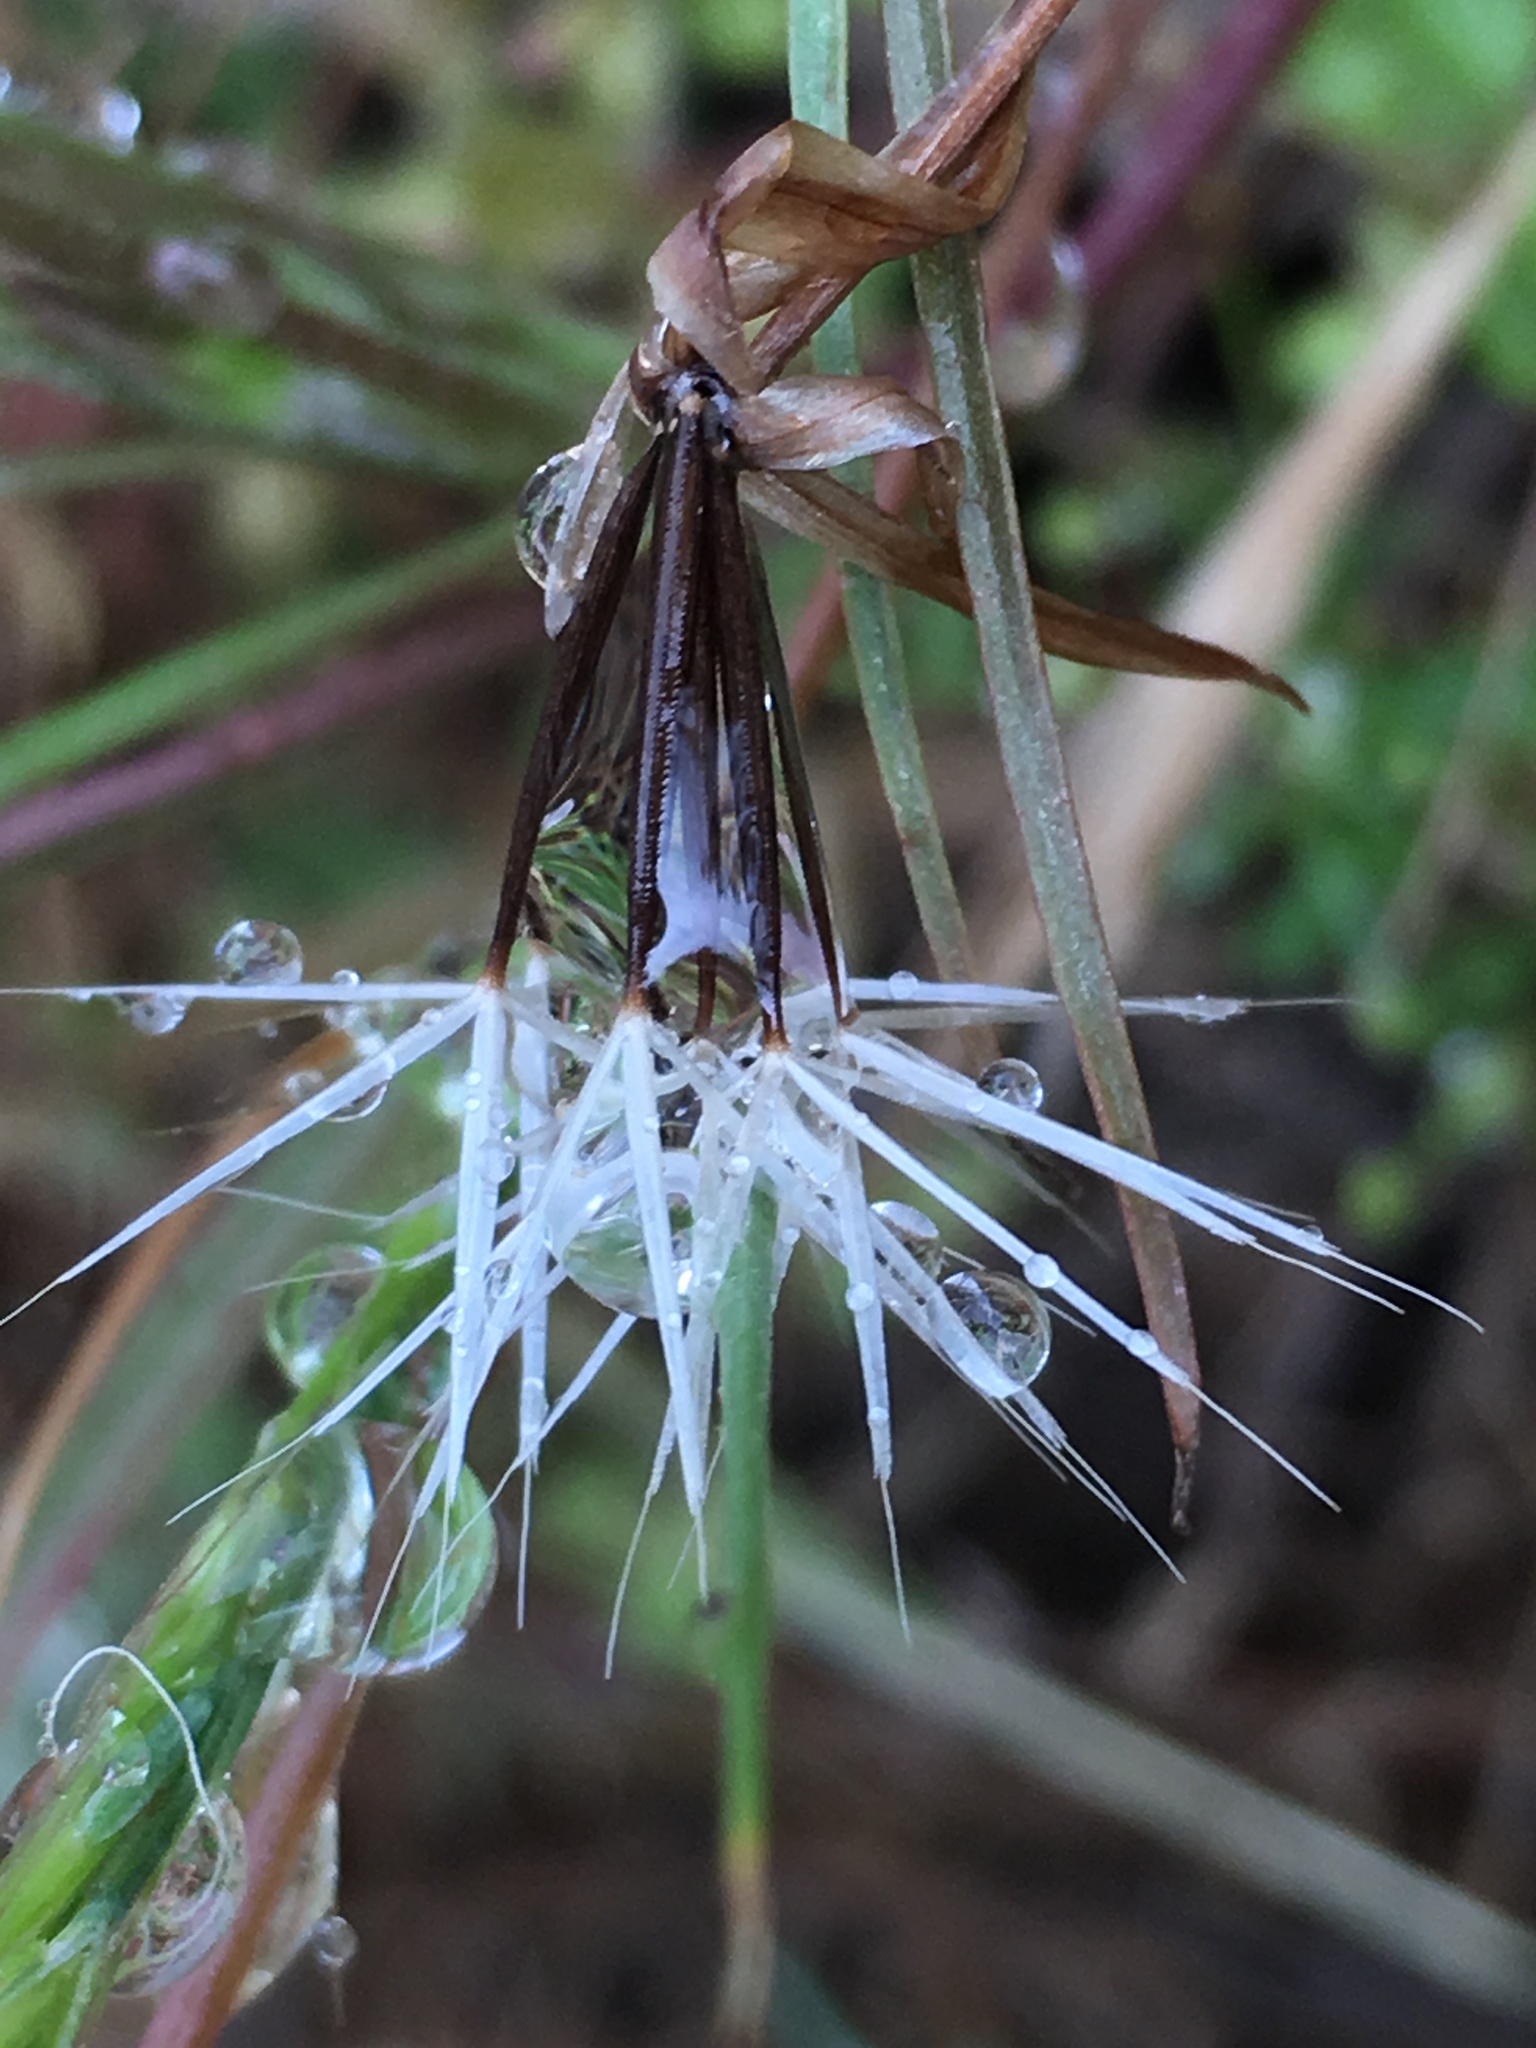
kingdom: Plantae
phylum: Tracheophyta
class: Magnoliopsida
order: Asterales
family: Asteraceae
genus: Microseris
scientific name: Microseris lindleyi
